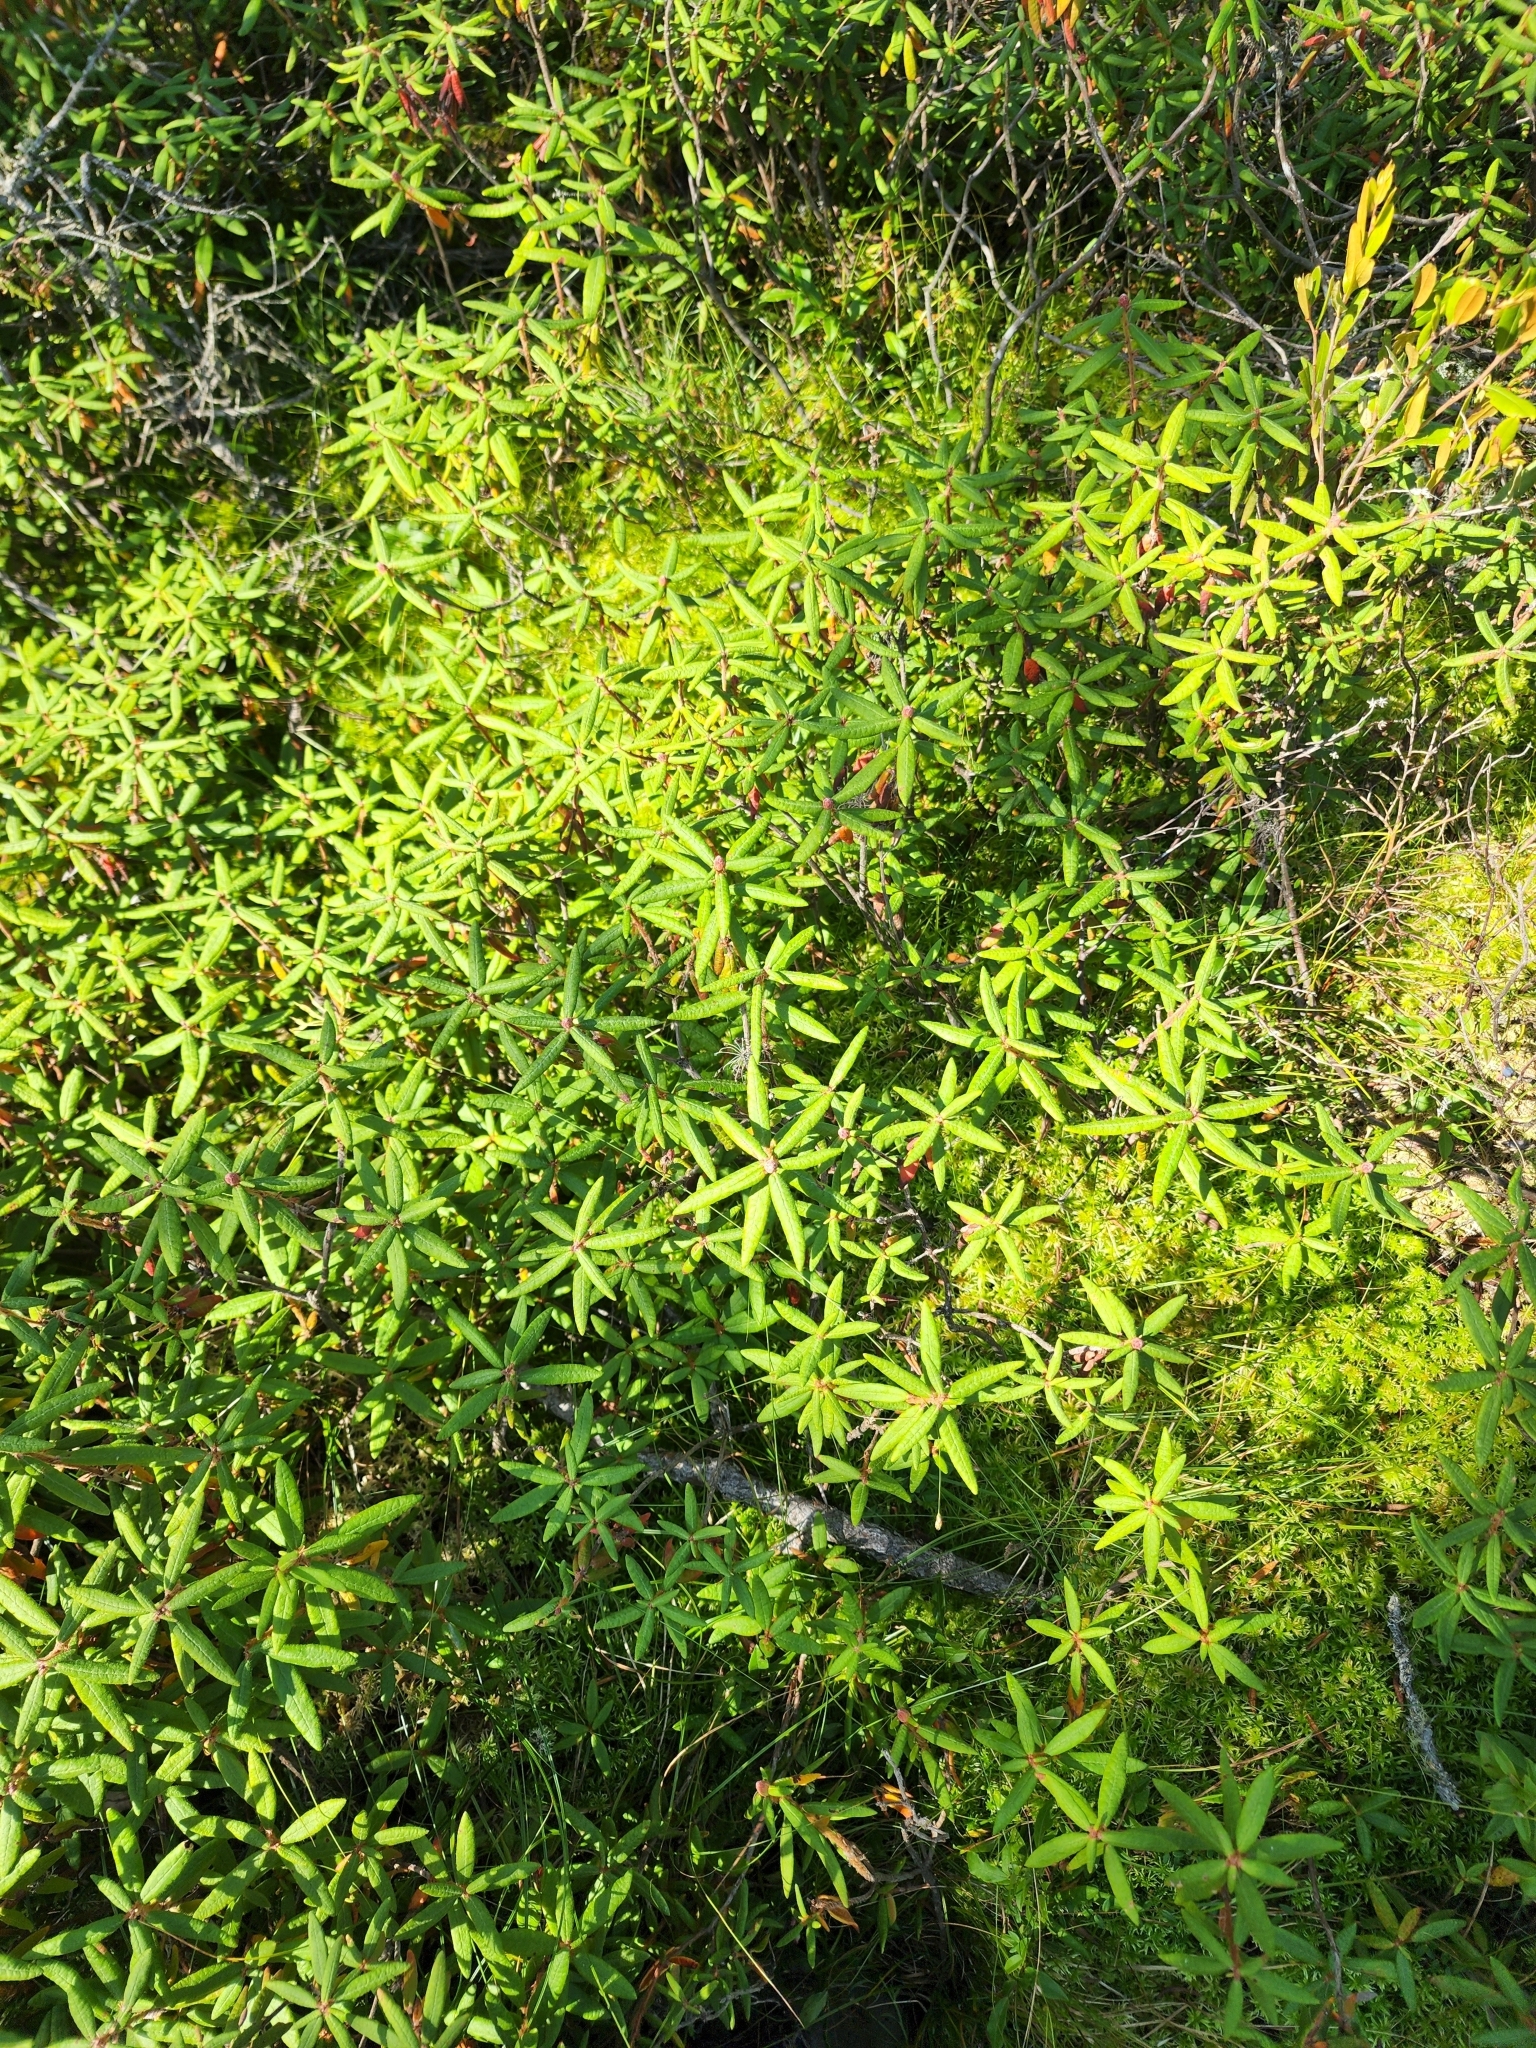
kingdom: Plantae
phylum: Tracheophyta
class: Magnoliopsida
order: Ericales
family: Ericaceae
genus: Rhododendron
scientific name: Rhododendron groenlandicum
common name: Bog labrador tea
